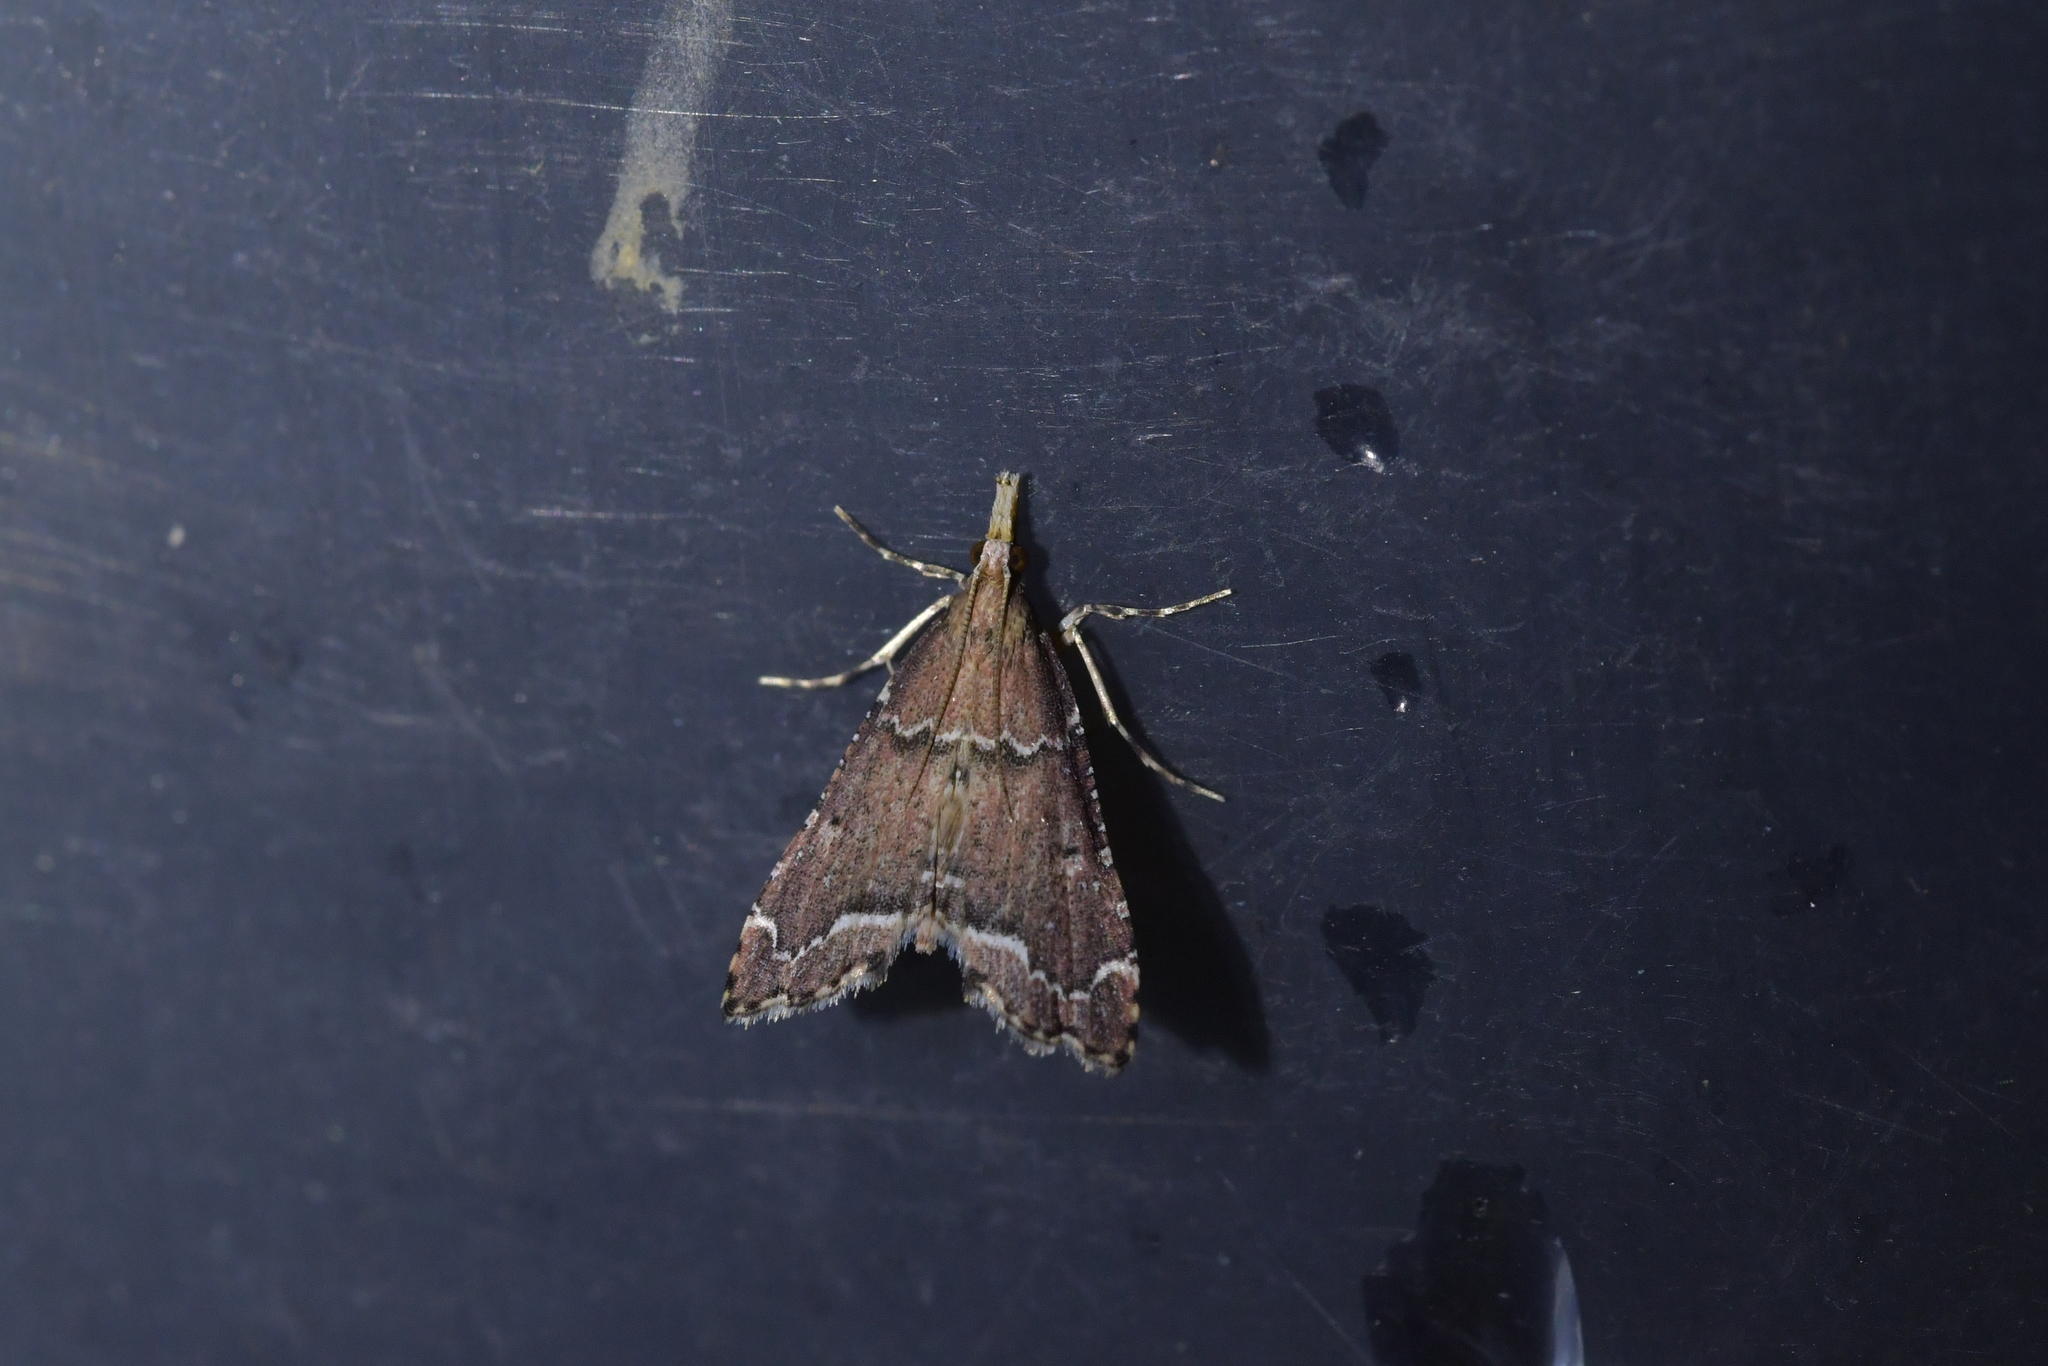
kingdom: Animalia
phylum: Arthropoda
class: Insecta
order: Lepidoptera
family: Crambidae
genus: Diplopseustis
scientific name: Diplopseustis perieresalis
